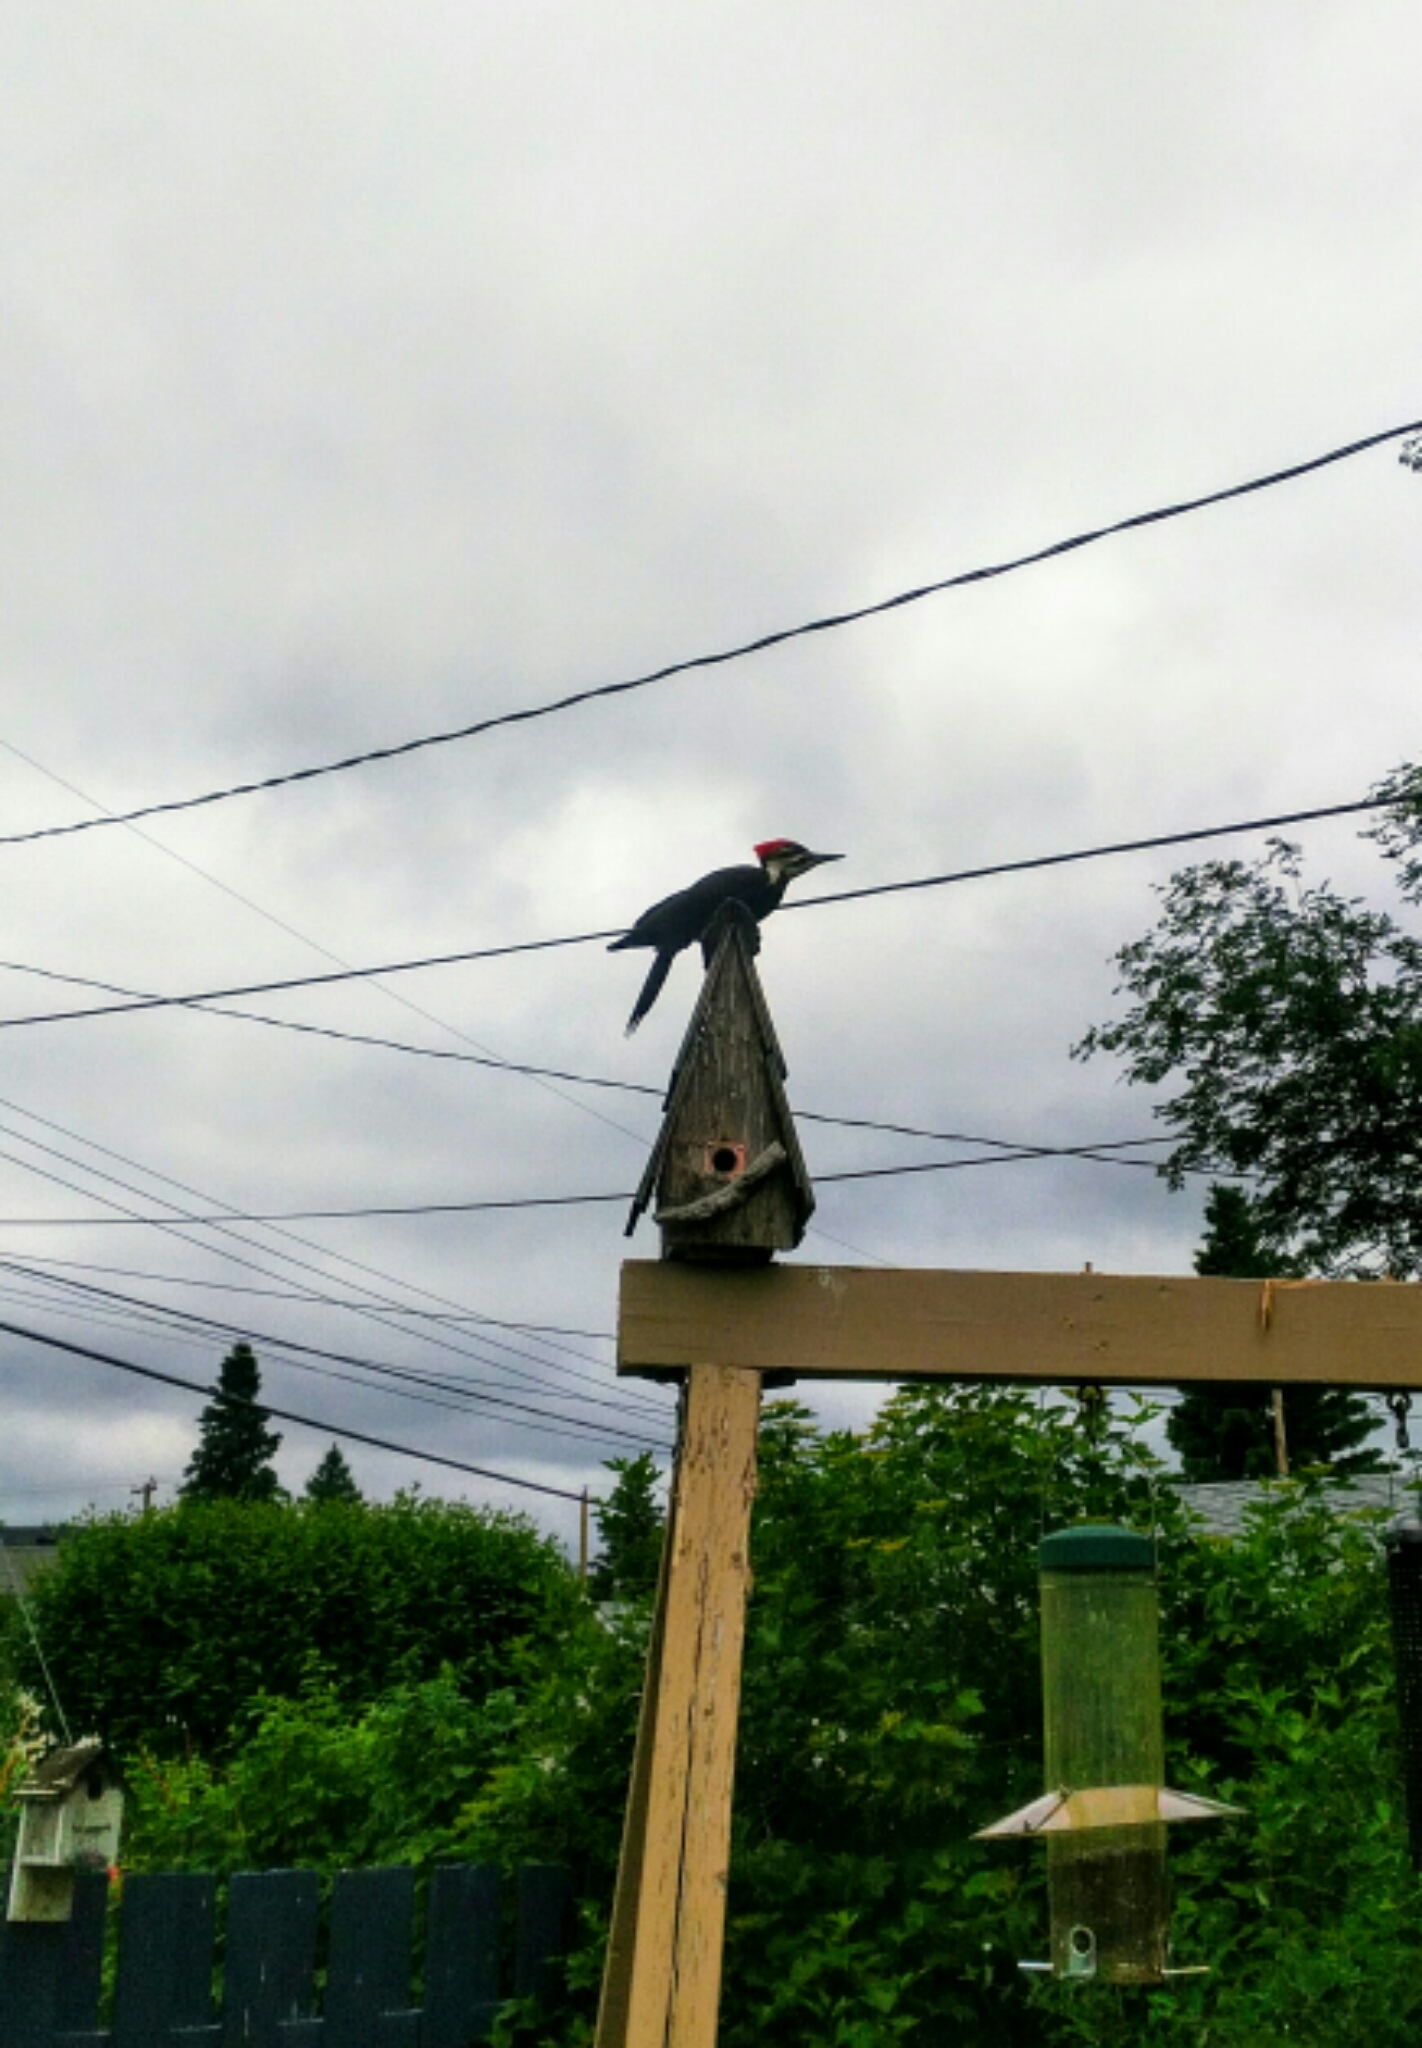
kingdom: Animalia
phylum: Chordata
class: Aves
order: Piciformes
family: Picidae
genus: Dryocopus
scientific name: Dryocopus pileatus
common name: Pileated woodpecker
